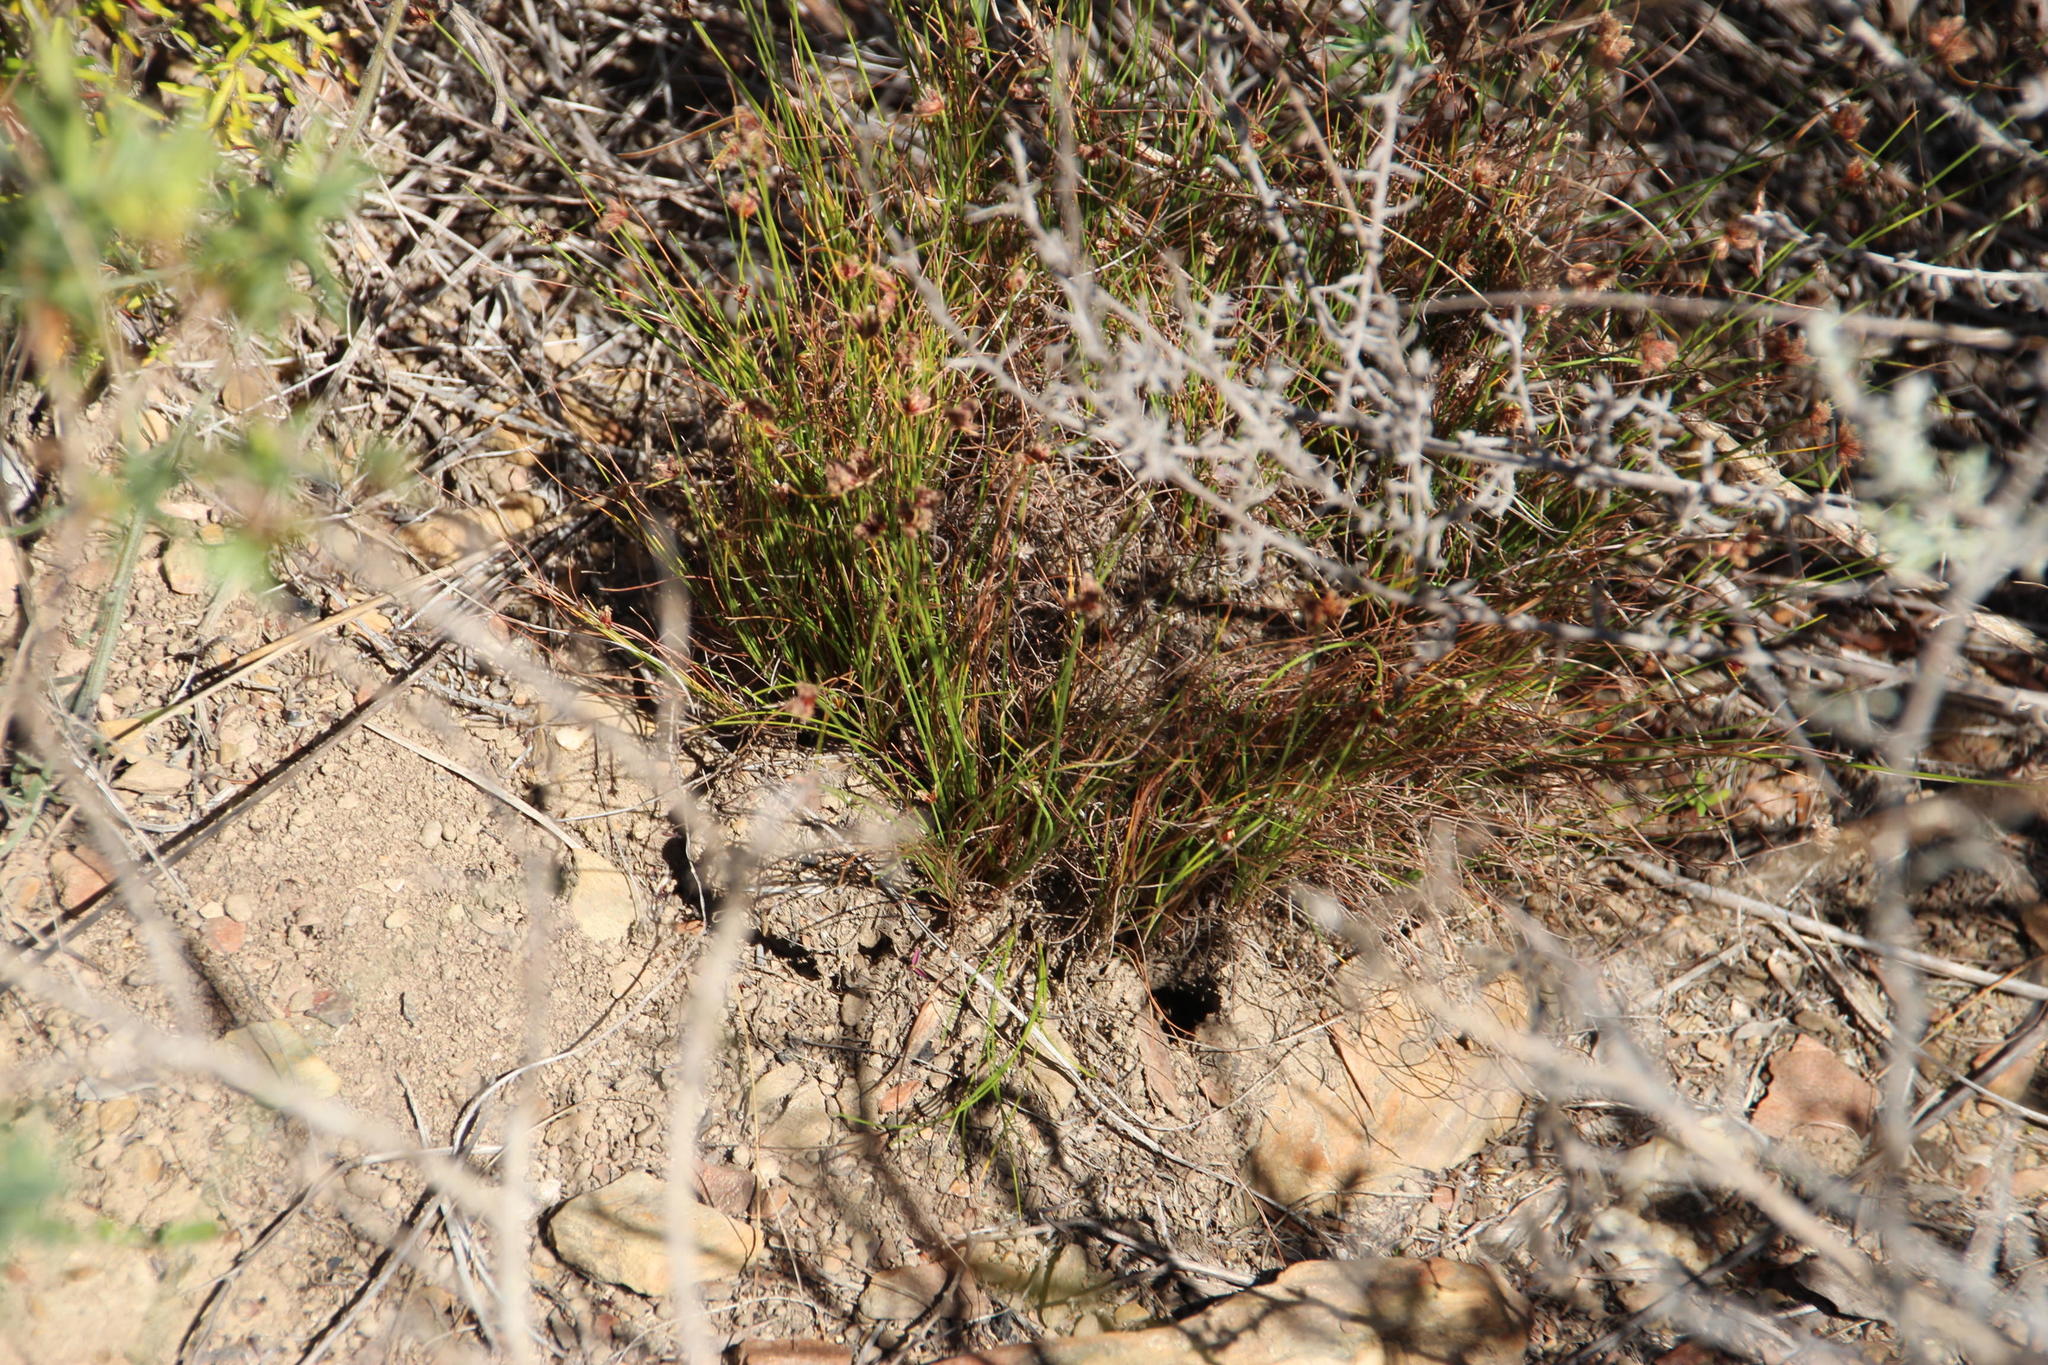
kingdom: Plantae
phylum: Tracheophyta
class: Liliopsida
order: Poales
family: Cyperaceae
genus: Ficinia
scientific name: Ficinia overbergensis
